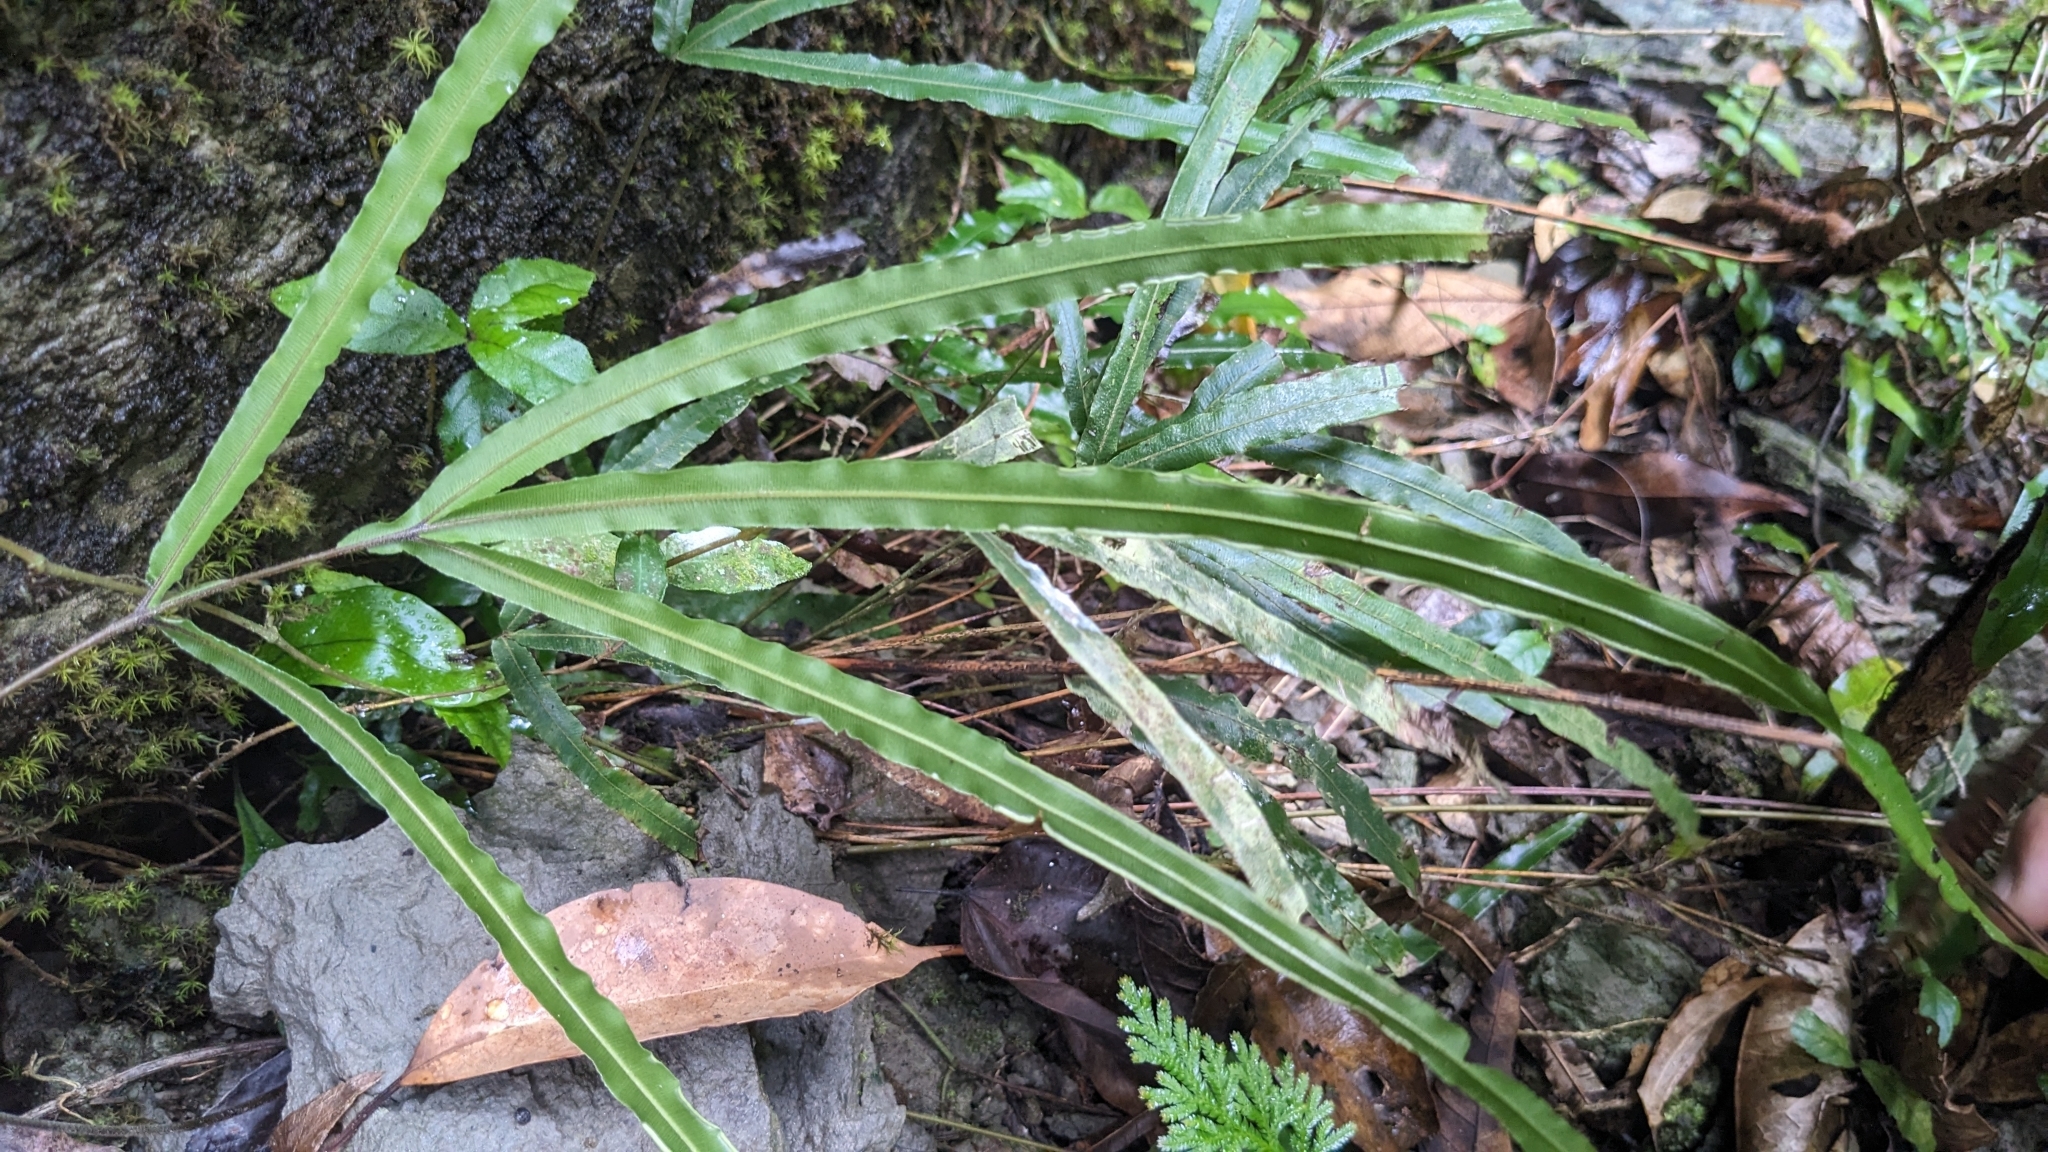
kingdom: Plantae
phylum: Tracheophyta
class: Polypodiopsida
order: Polypodiales
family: Pteridaceae
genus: Pteris
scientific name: Pteris longipinna
